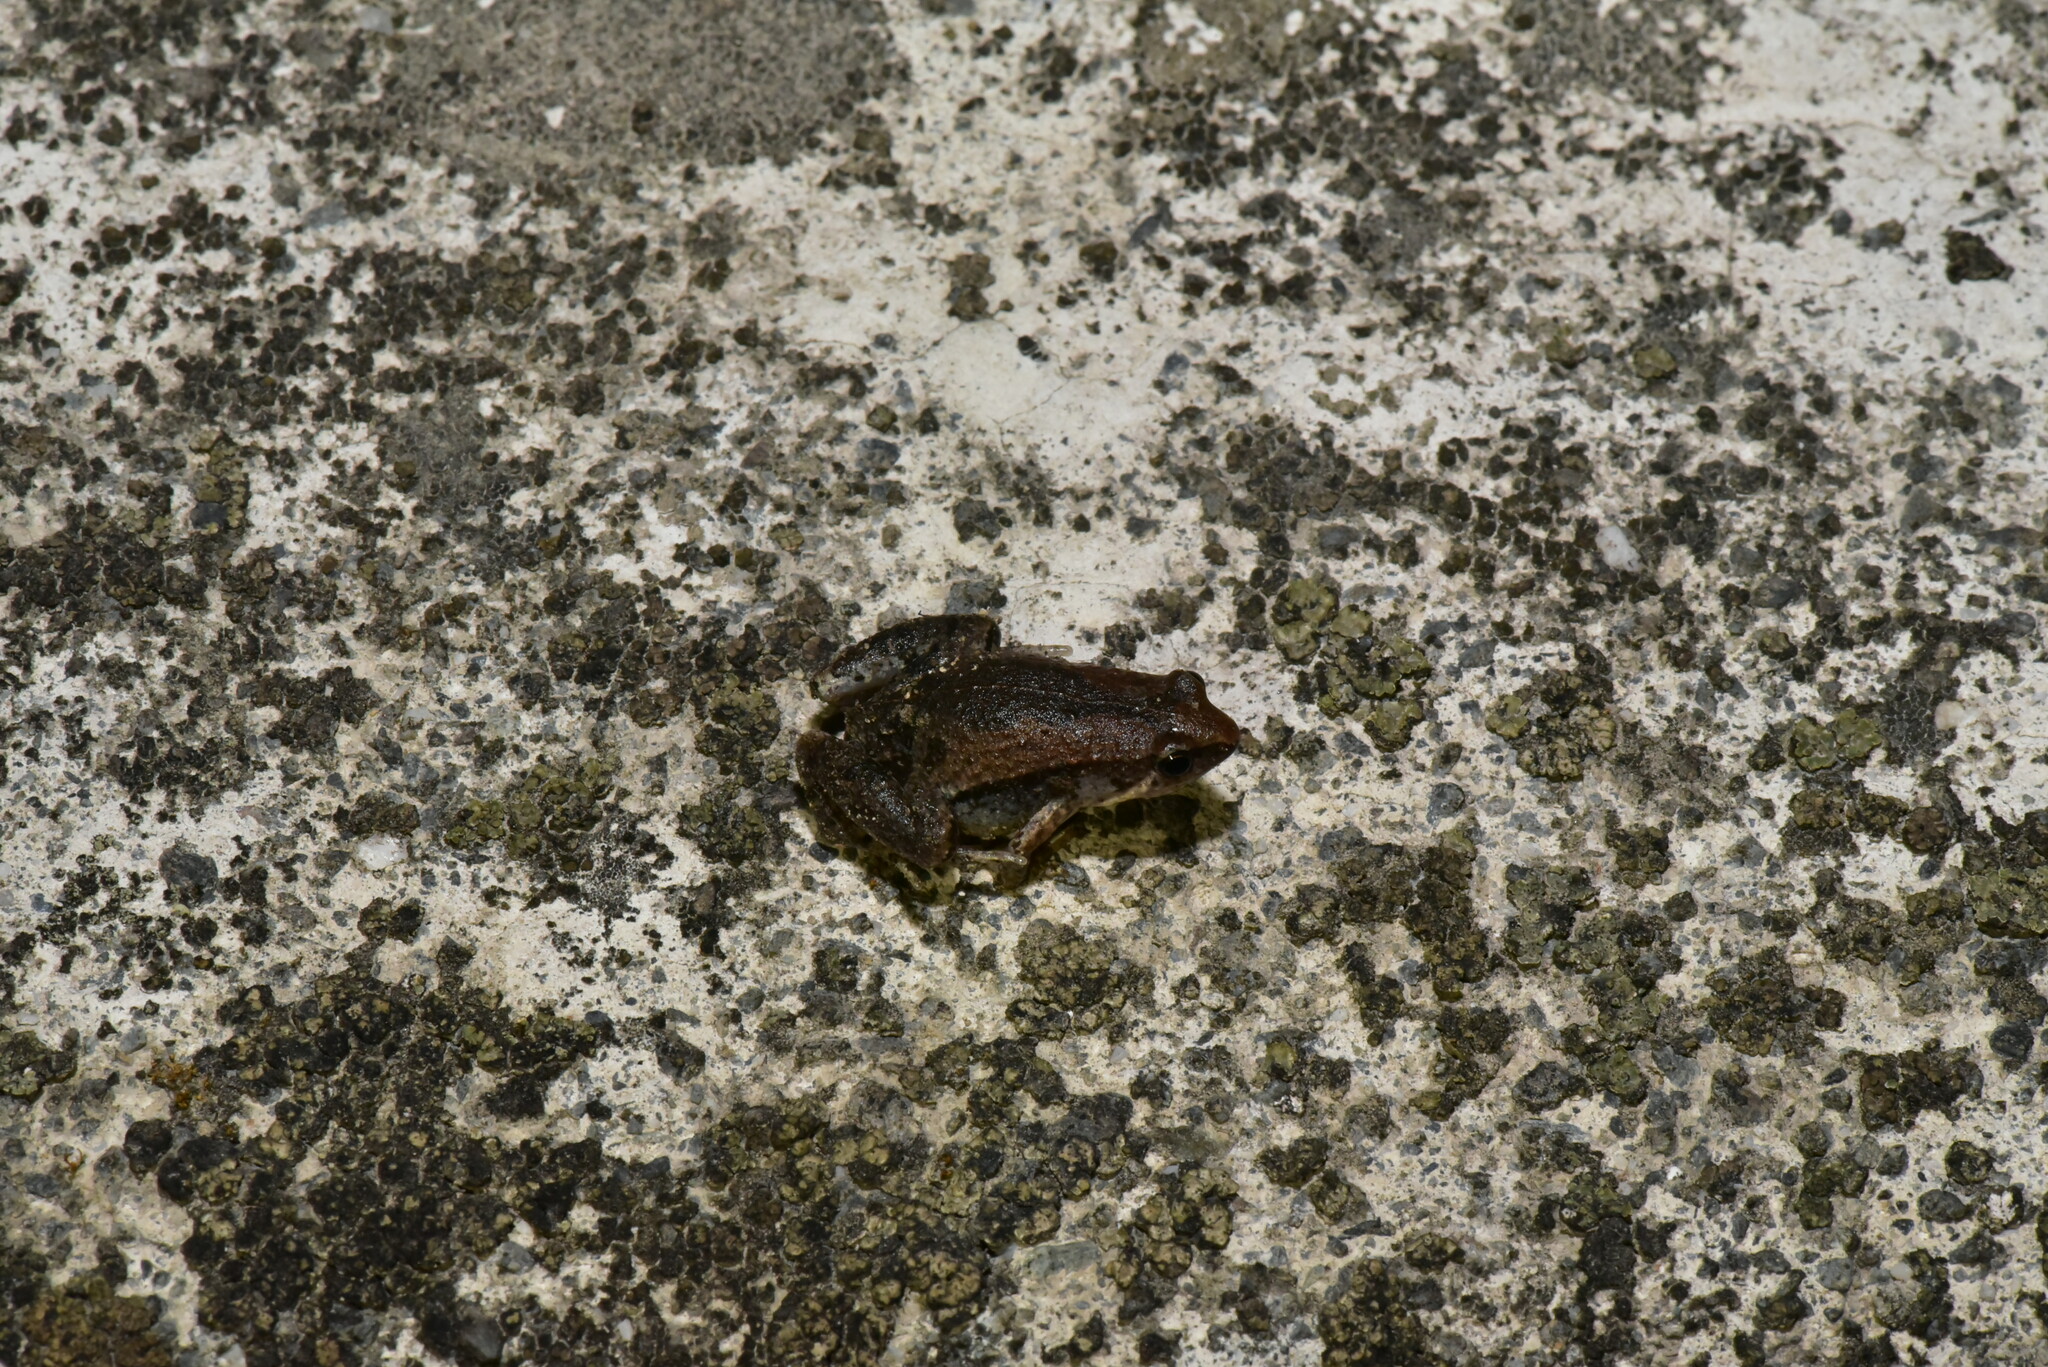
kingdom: Animalia
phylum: Chordata
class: Amphibia
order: Anura
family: Microhylidae
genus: Microhyla
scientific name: Microhyla fissipes
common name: Ornate narrow-mouthed frog
